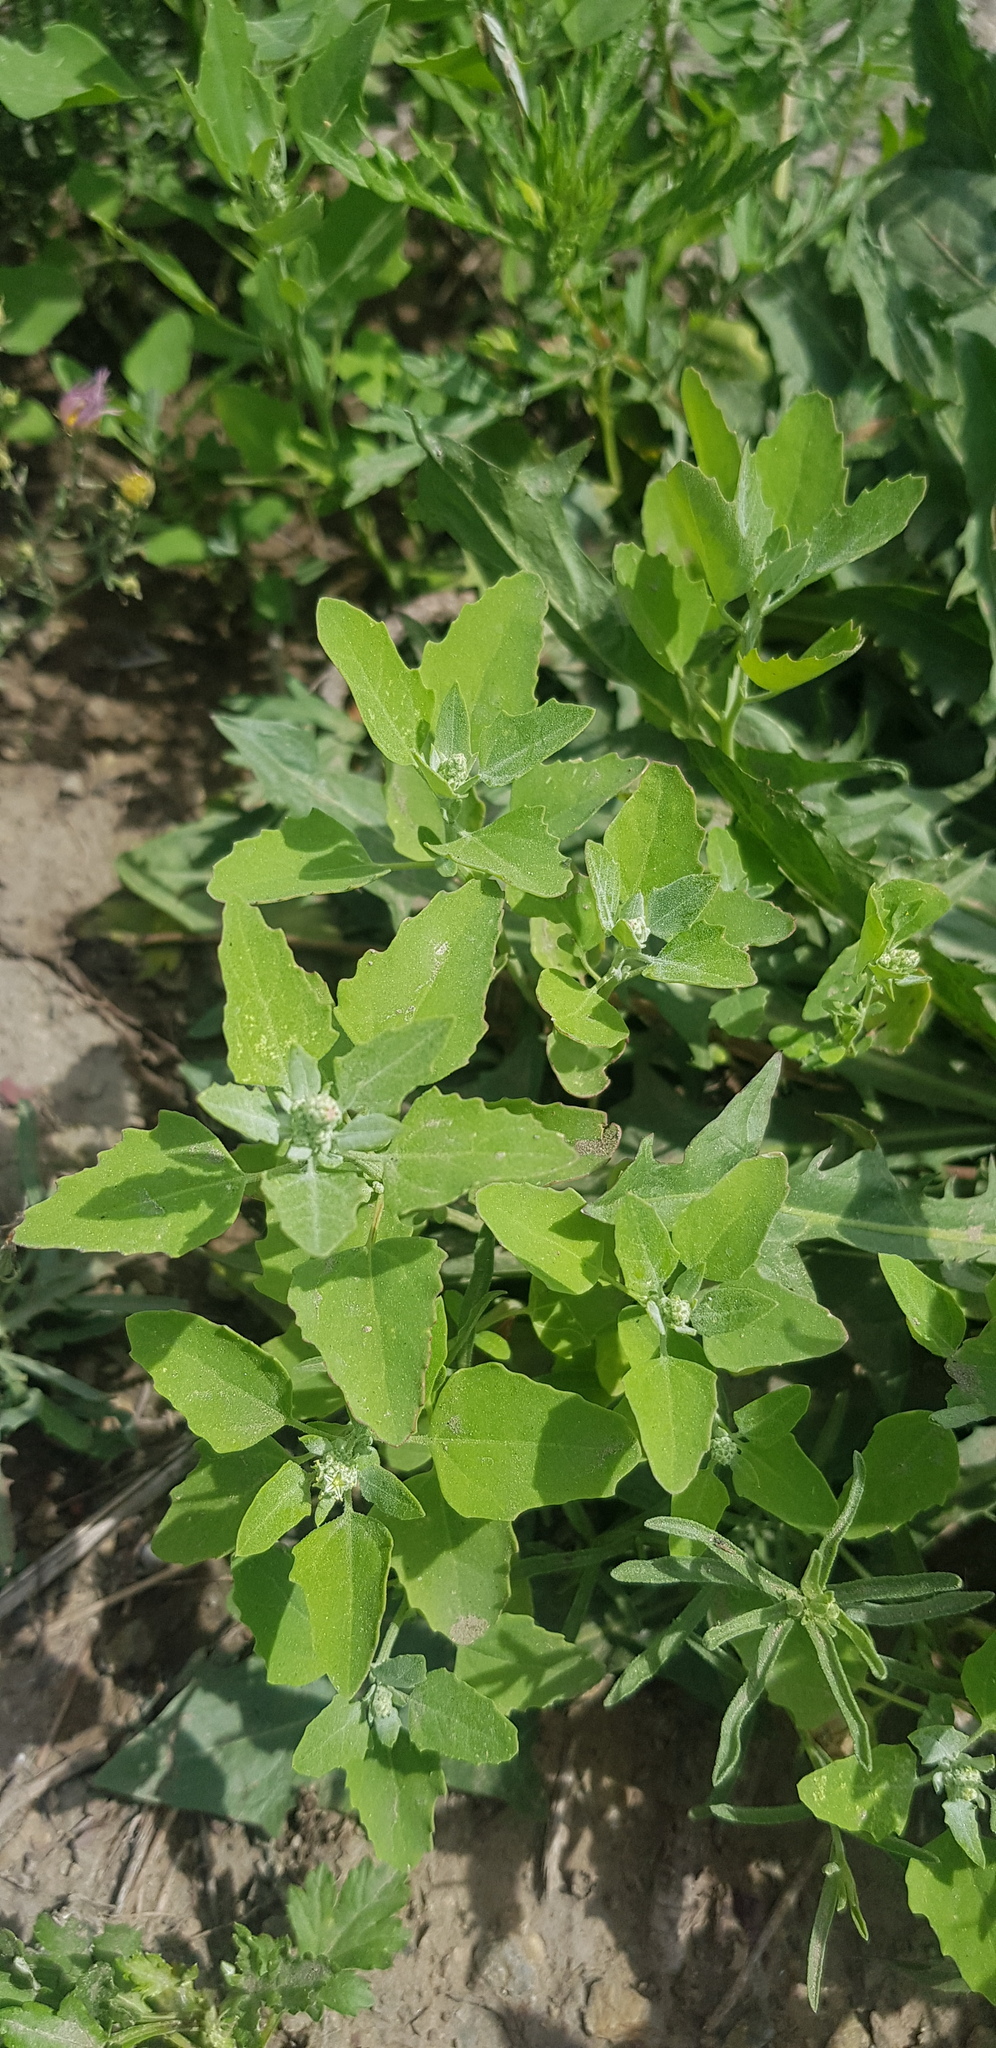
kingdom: Plantae
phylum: Tracheophyta
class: Magnoliopsida
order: Caryophyllales
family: Amaranthaceae
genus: Chenopodium
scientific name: Chenopodium album
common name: Fat-hen
